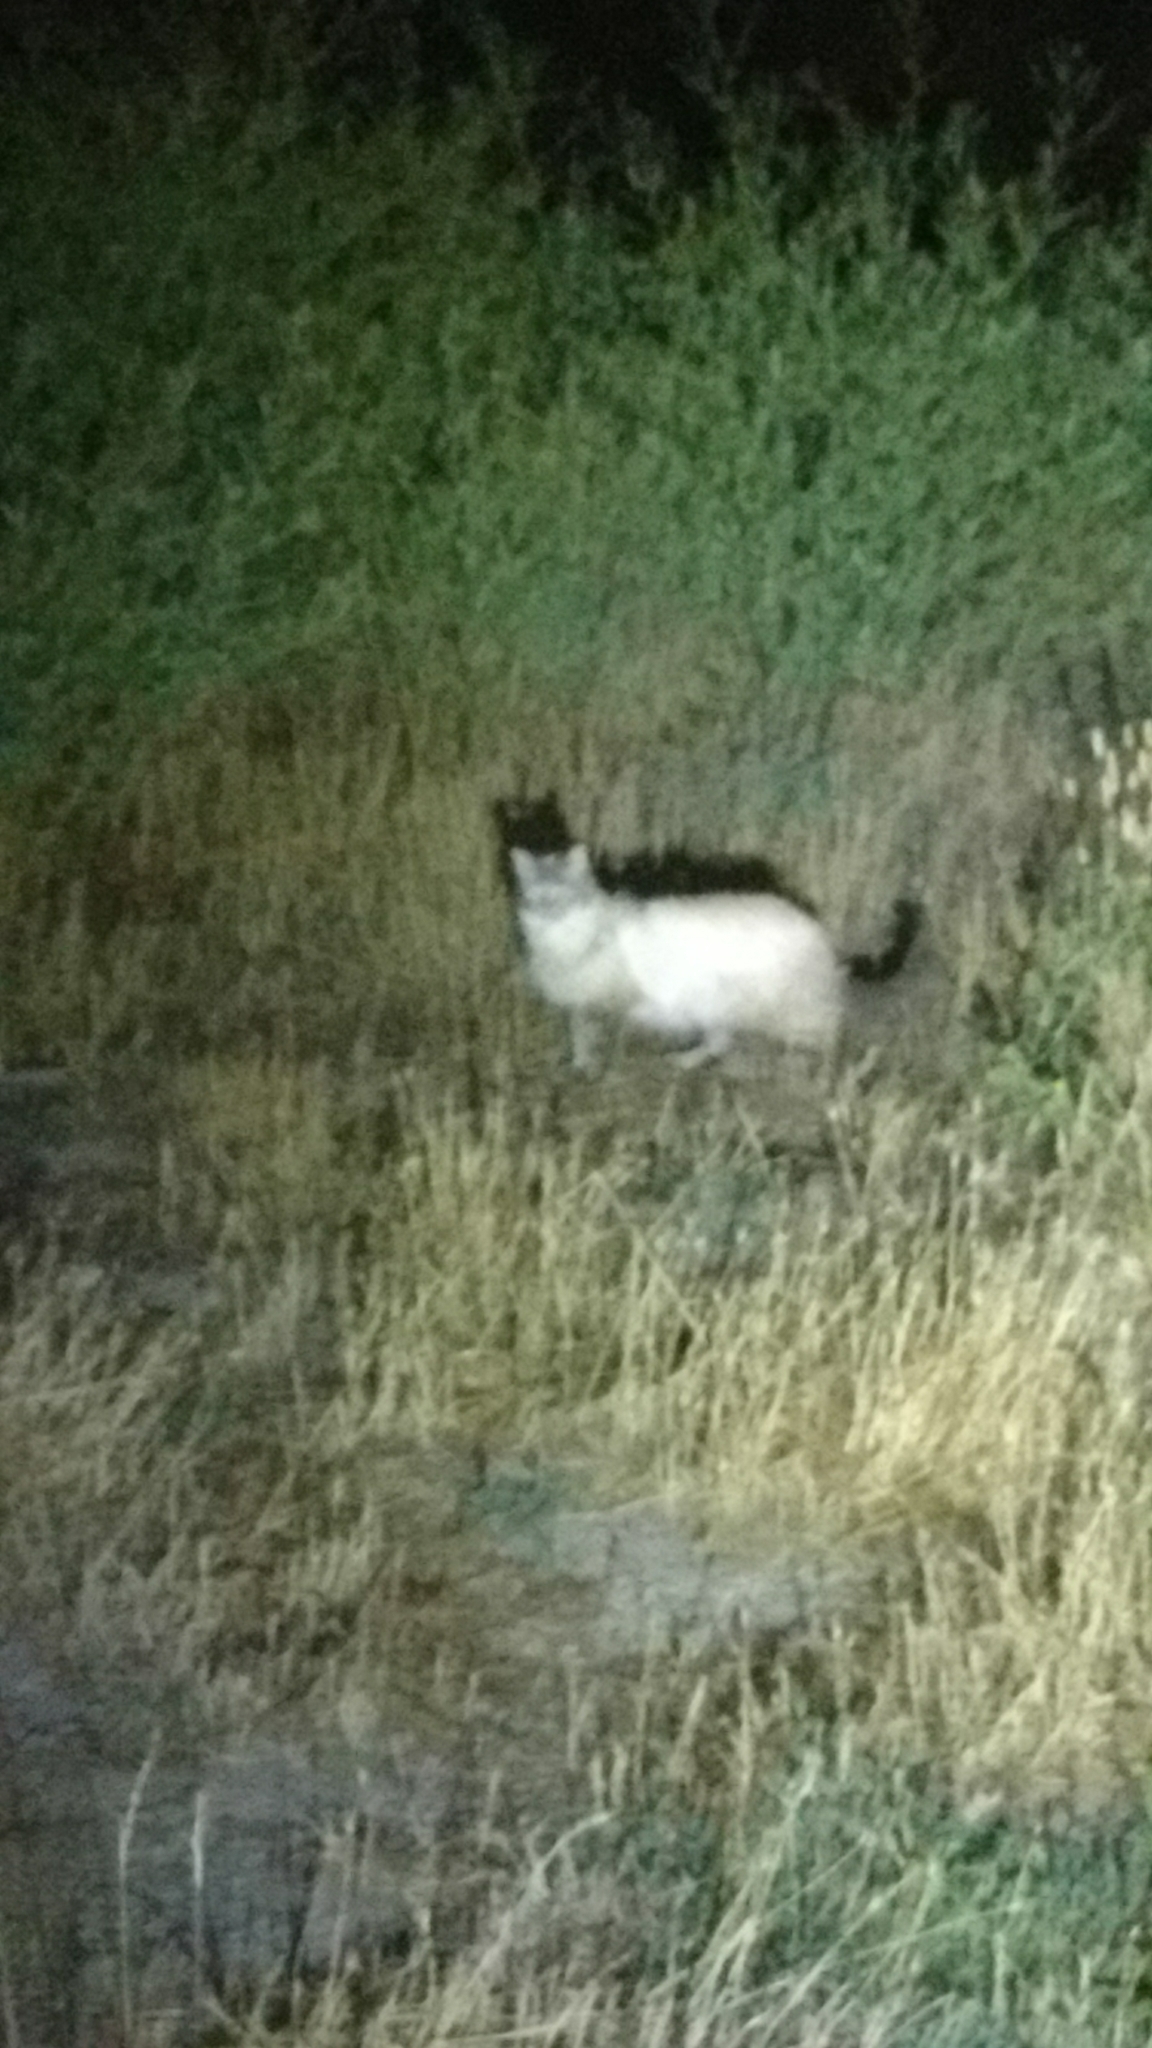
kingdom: Animalia
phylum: Chordata
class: Mammalia
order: Carnivora
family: Felidae
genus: Felis
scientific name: Felis catus
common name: Domestic cat
